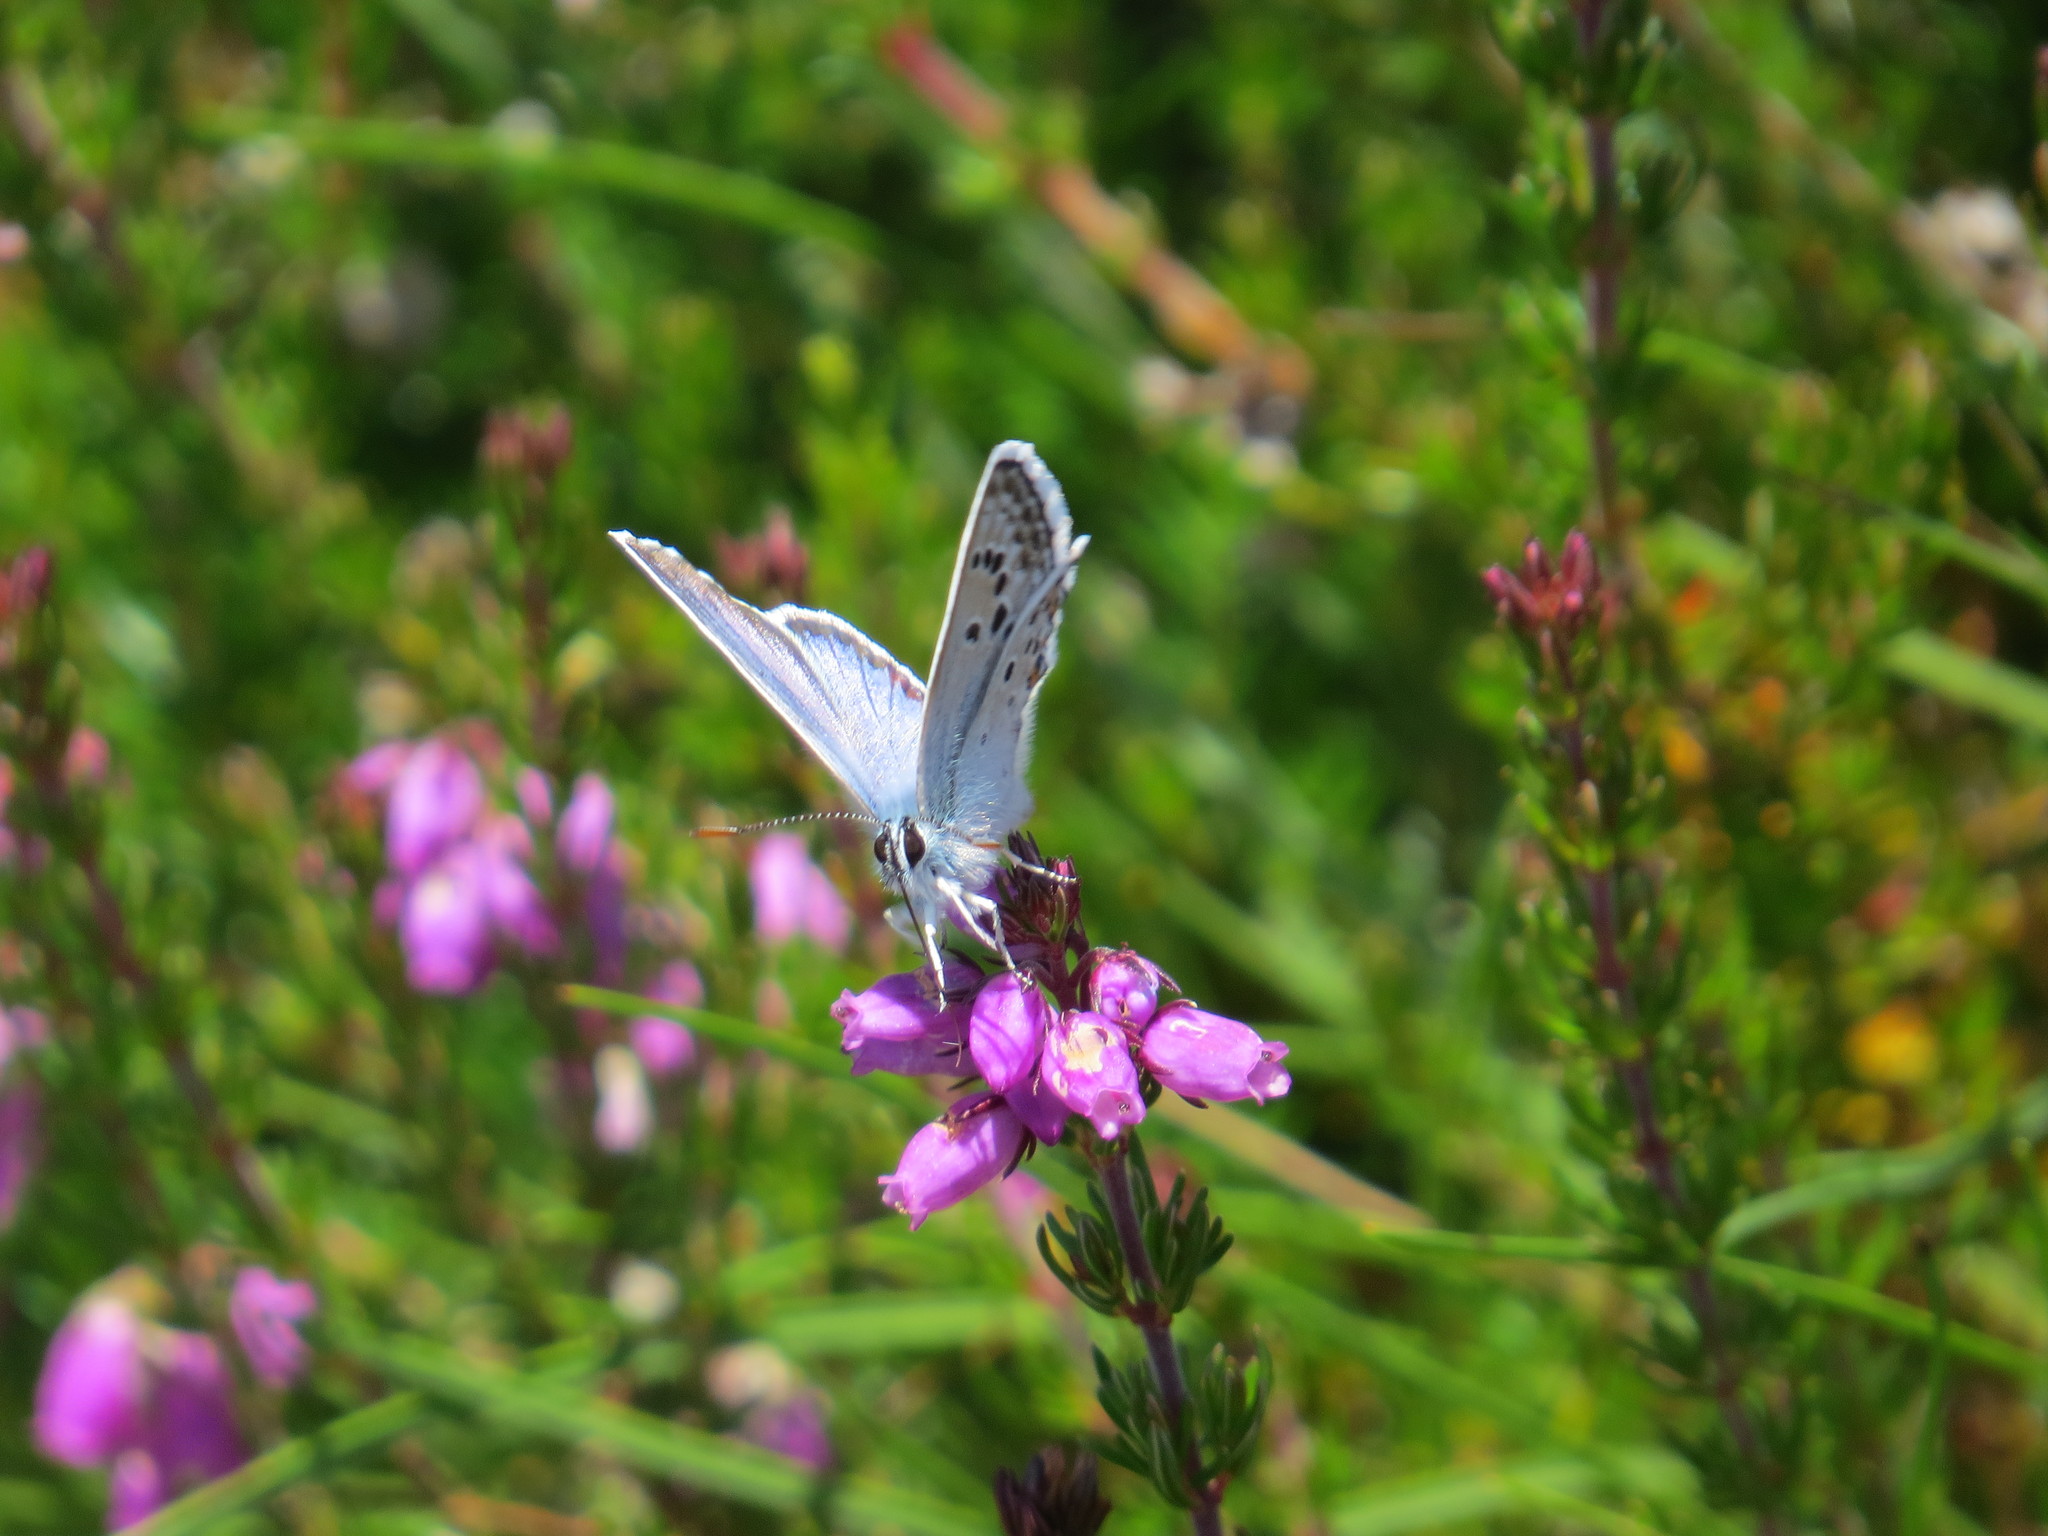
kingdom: Animalia
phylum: Arthropoda
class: Insecta
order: Lepidoptera
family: Lycaenidae
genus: Plebejus
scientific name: Plebejus argus
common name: Silver-studded blue
